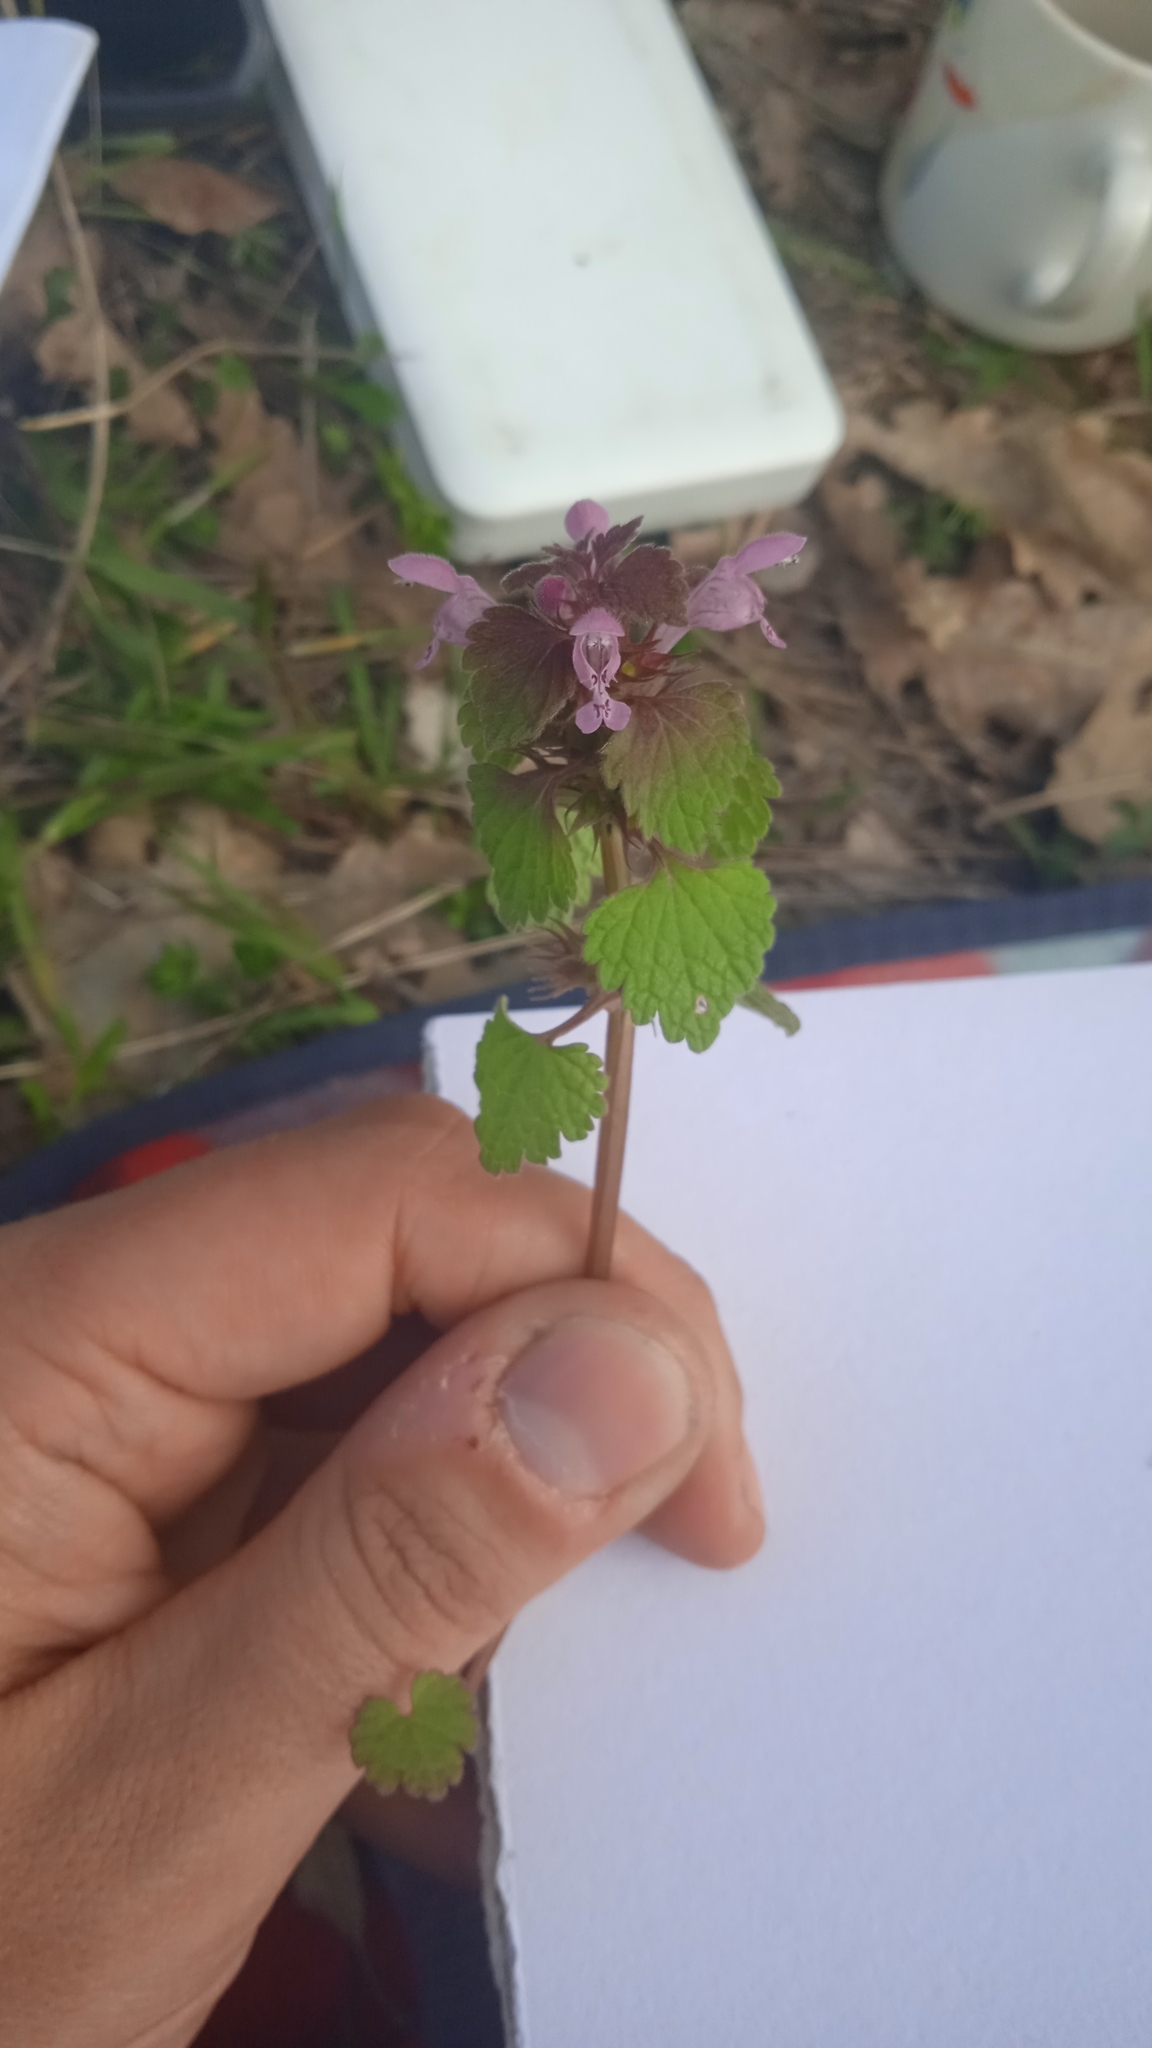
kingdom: Plantae
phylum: Tracheophyta
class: Magnoliopsida
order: Lamiales
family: Lamiaceae
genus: Lamium
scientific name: Lamium purpureum
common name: Red dead-nettle
